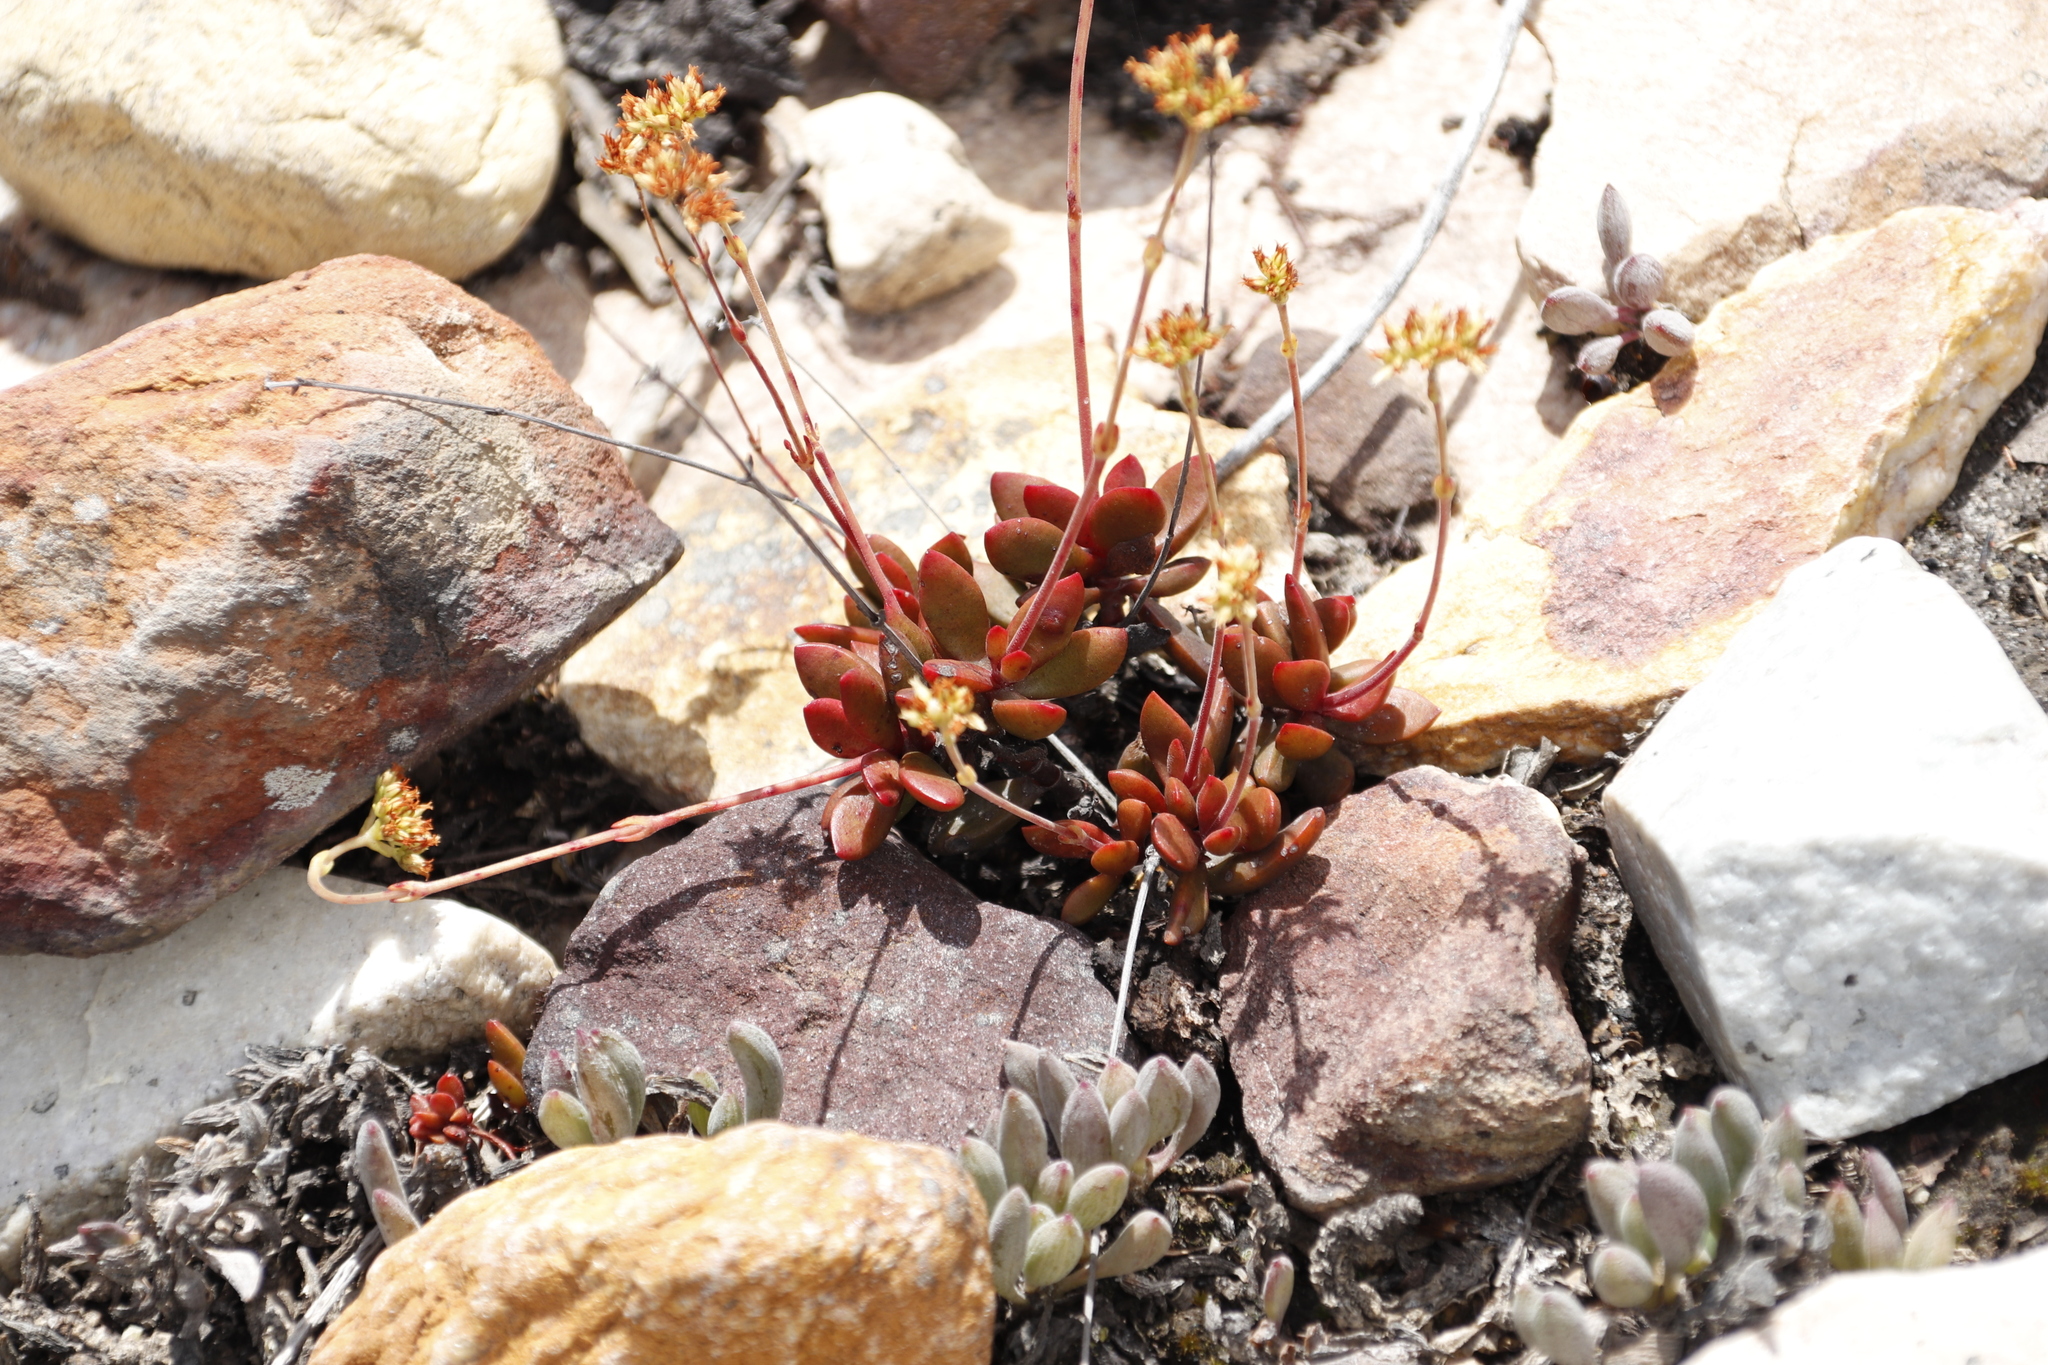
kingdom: Plantae
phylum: Tracheophyta
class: Magnoliopsida
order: Saxifragales
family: Crassulaceae
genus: Crassula
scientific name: Crassula pubescens
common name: Jersey pigmyweed
